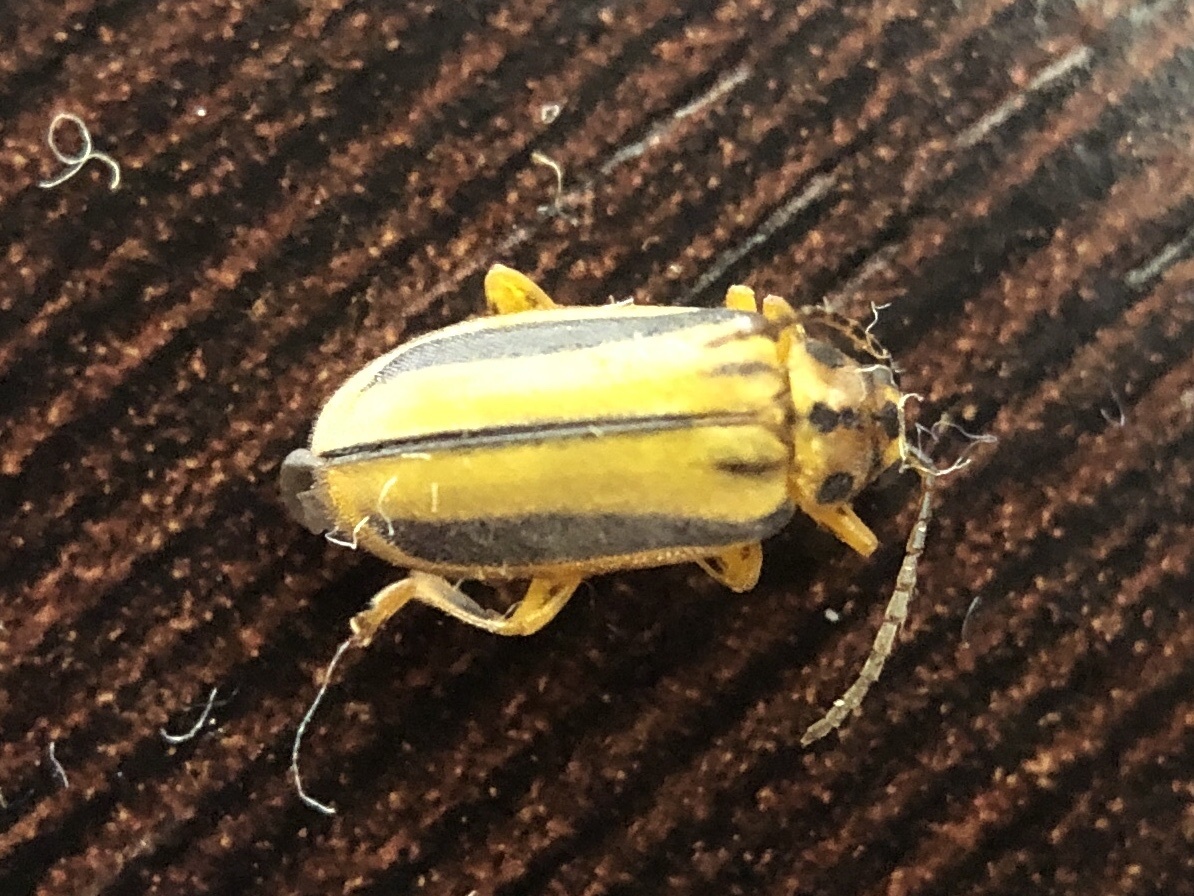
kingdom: Animalia
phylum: Arthropoda
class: Insecta
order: Coleoptera
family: Chrysomelidae
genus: Xanthogaleruca
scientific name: Xanthogaleruca luteola
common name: Elm leaf beetle
